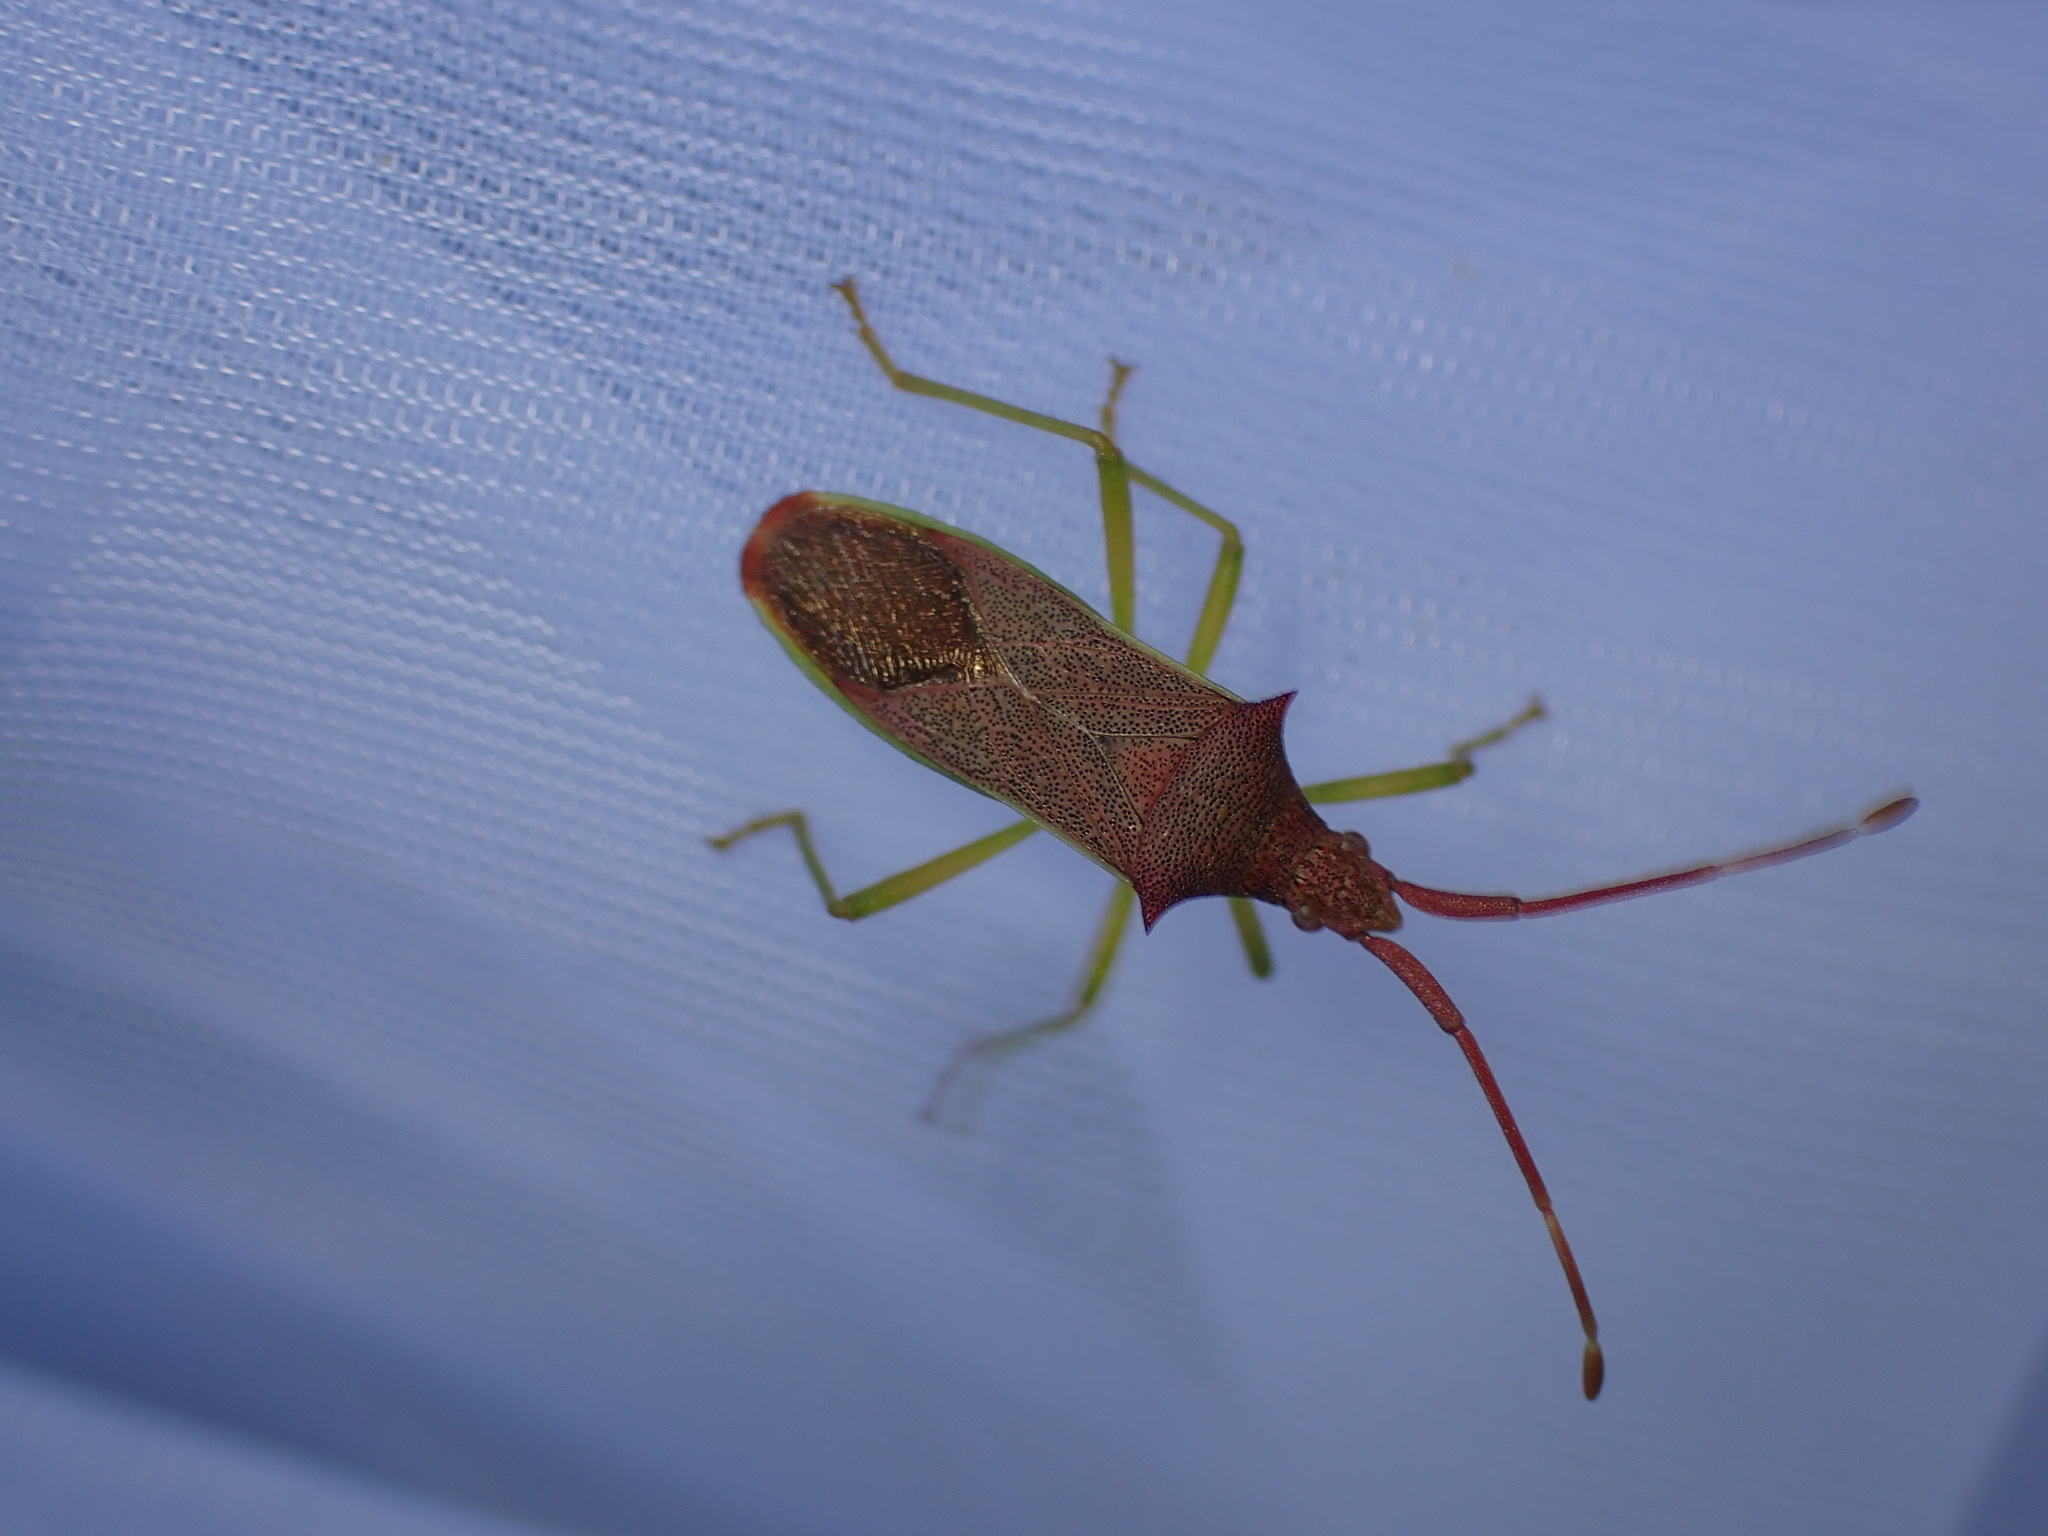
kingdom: Animalia
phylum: Arthropoda
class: Insecta
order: Hemiptera
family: Coreidae
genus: Gonocerus
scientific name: Gonocerus insidiator
